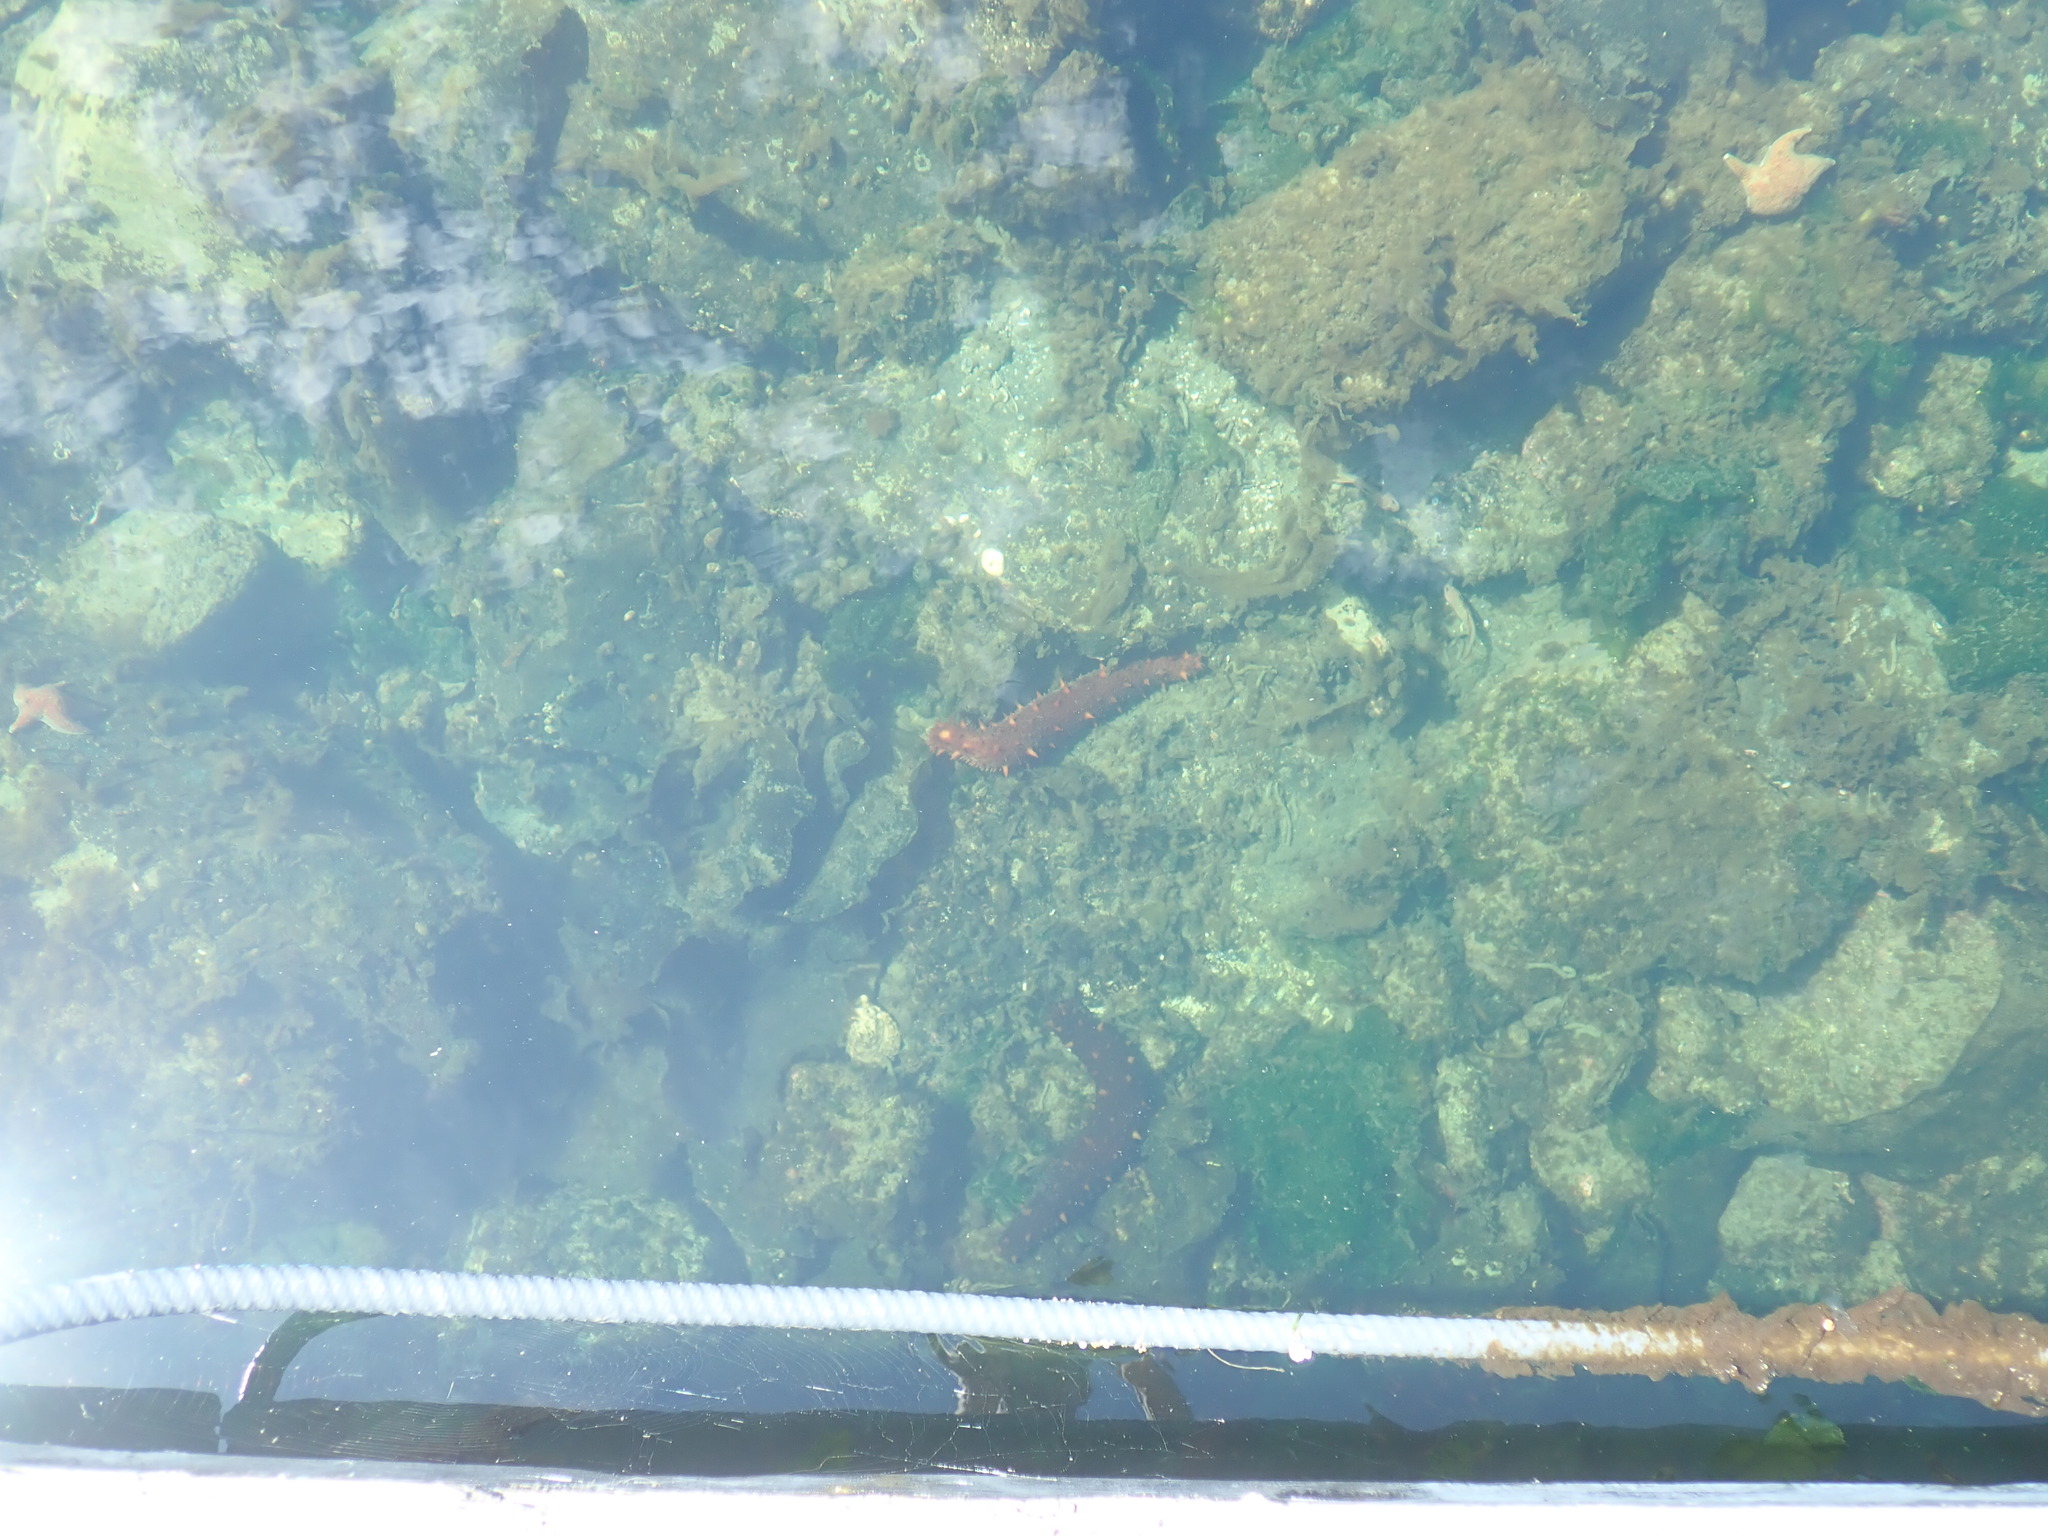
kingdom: Animalia
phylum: Echinodermata
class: Holothuroidea
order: Synallactida
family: Stichopodidae
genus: Apostichopus
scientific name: Apostichopus californicus
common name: California sea cucumber
